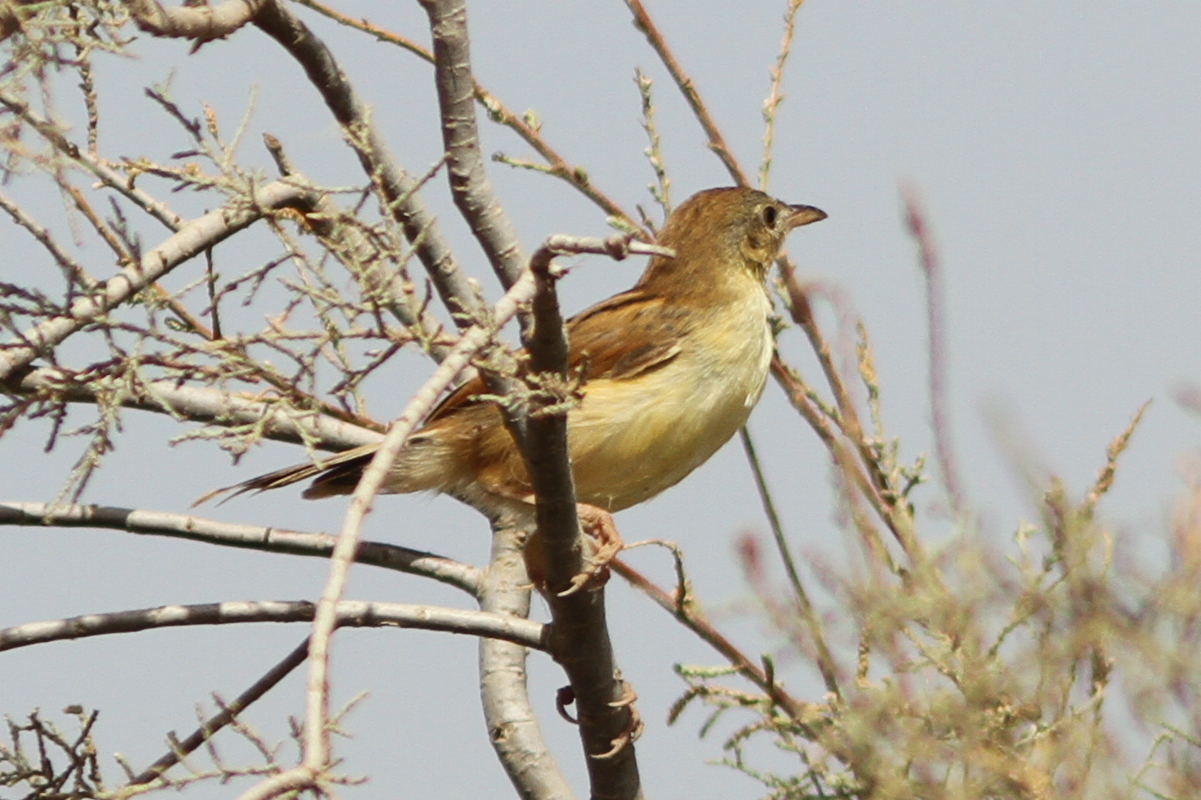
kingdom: Animalia
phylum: Chordata
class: Aves
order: Passeriformes
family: Cisticolidae
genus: Cisticola
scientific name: Cisticola marginatus
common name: Winding cisticola
